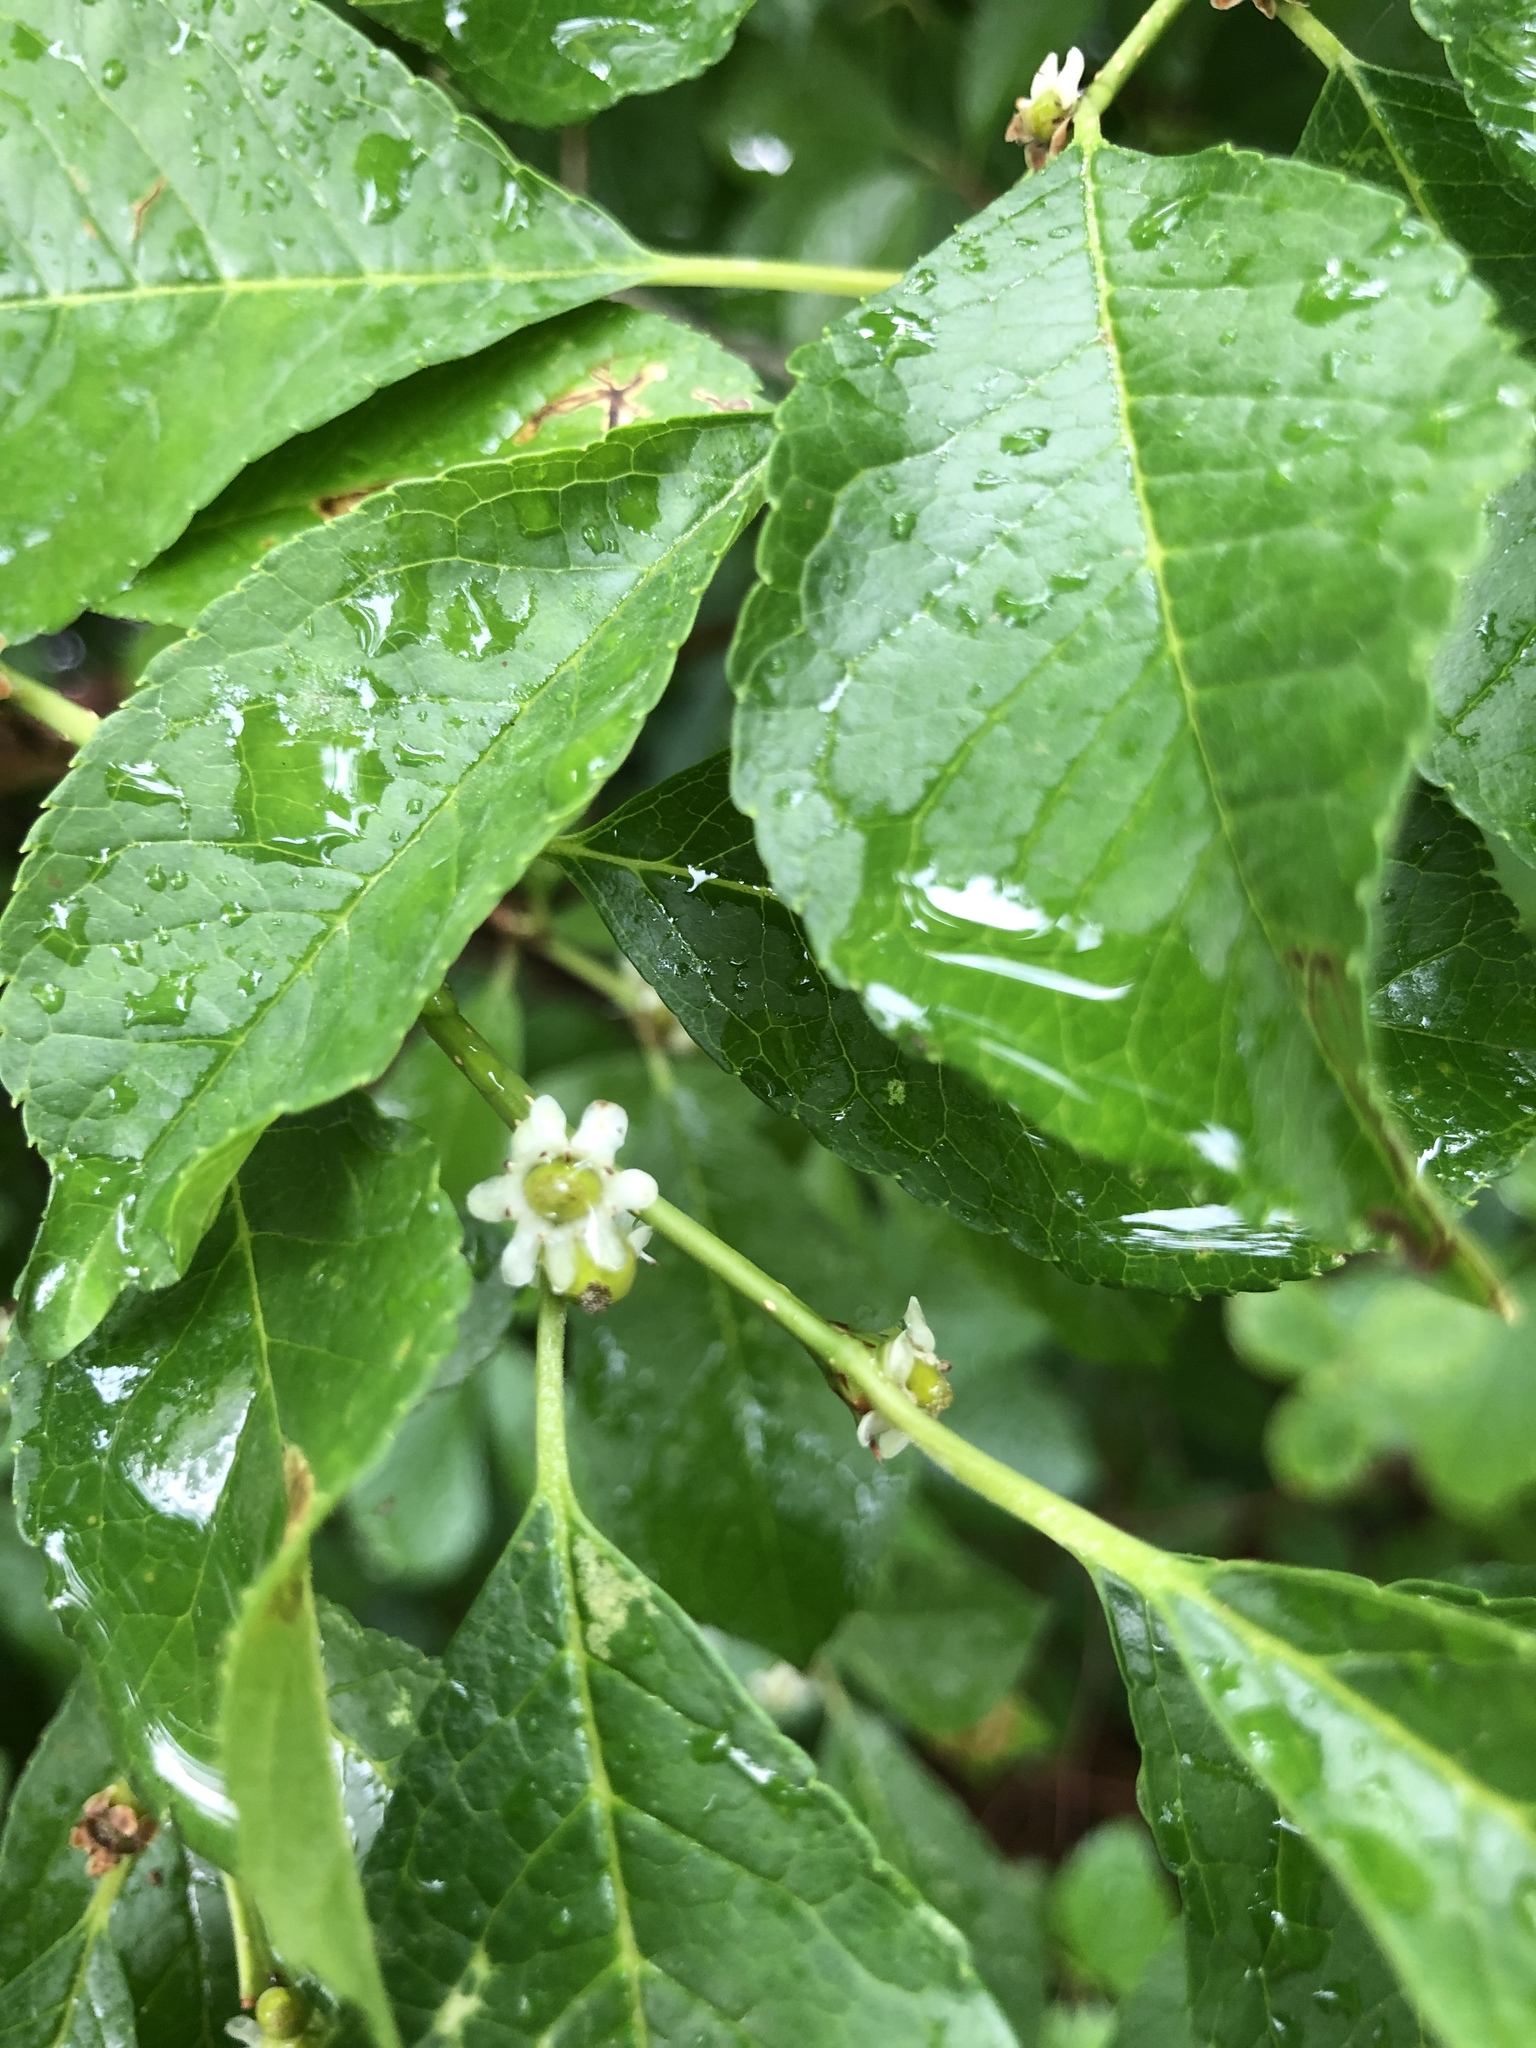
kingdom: Plantae
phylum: Tracheophyta
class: Magnoliopsida
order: Aquifoliales
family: Aquifoliaceae
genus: Ilex
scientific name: Ilex verticillata
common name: Virginia winterberry
